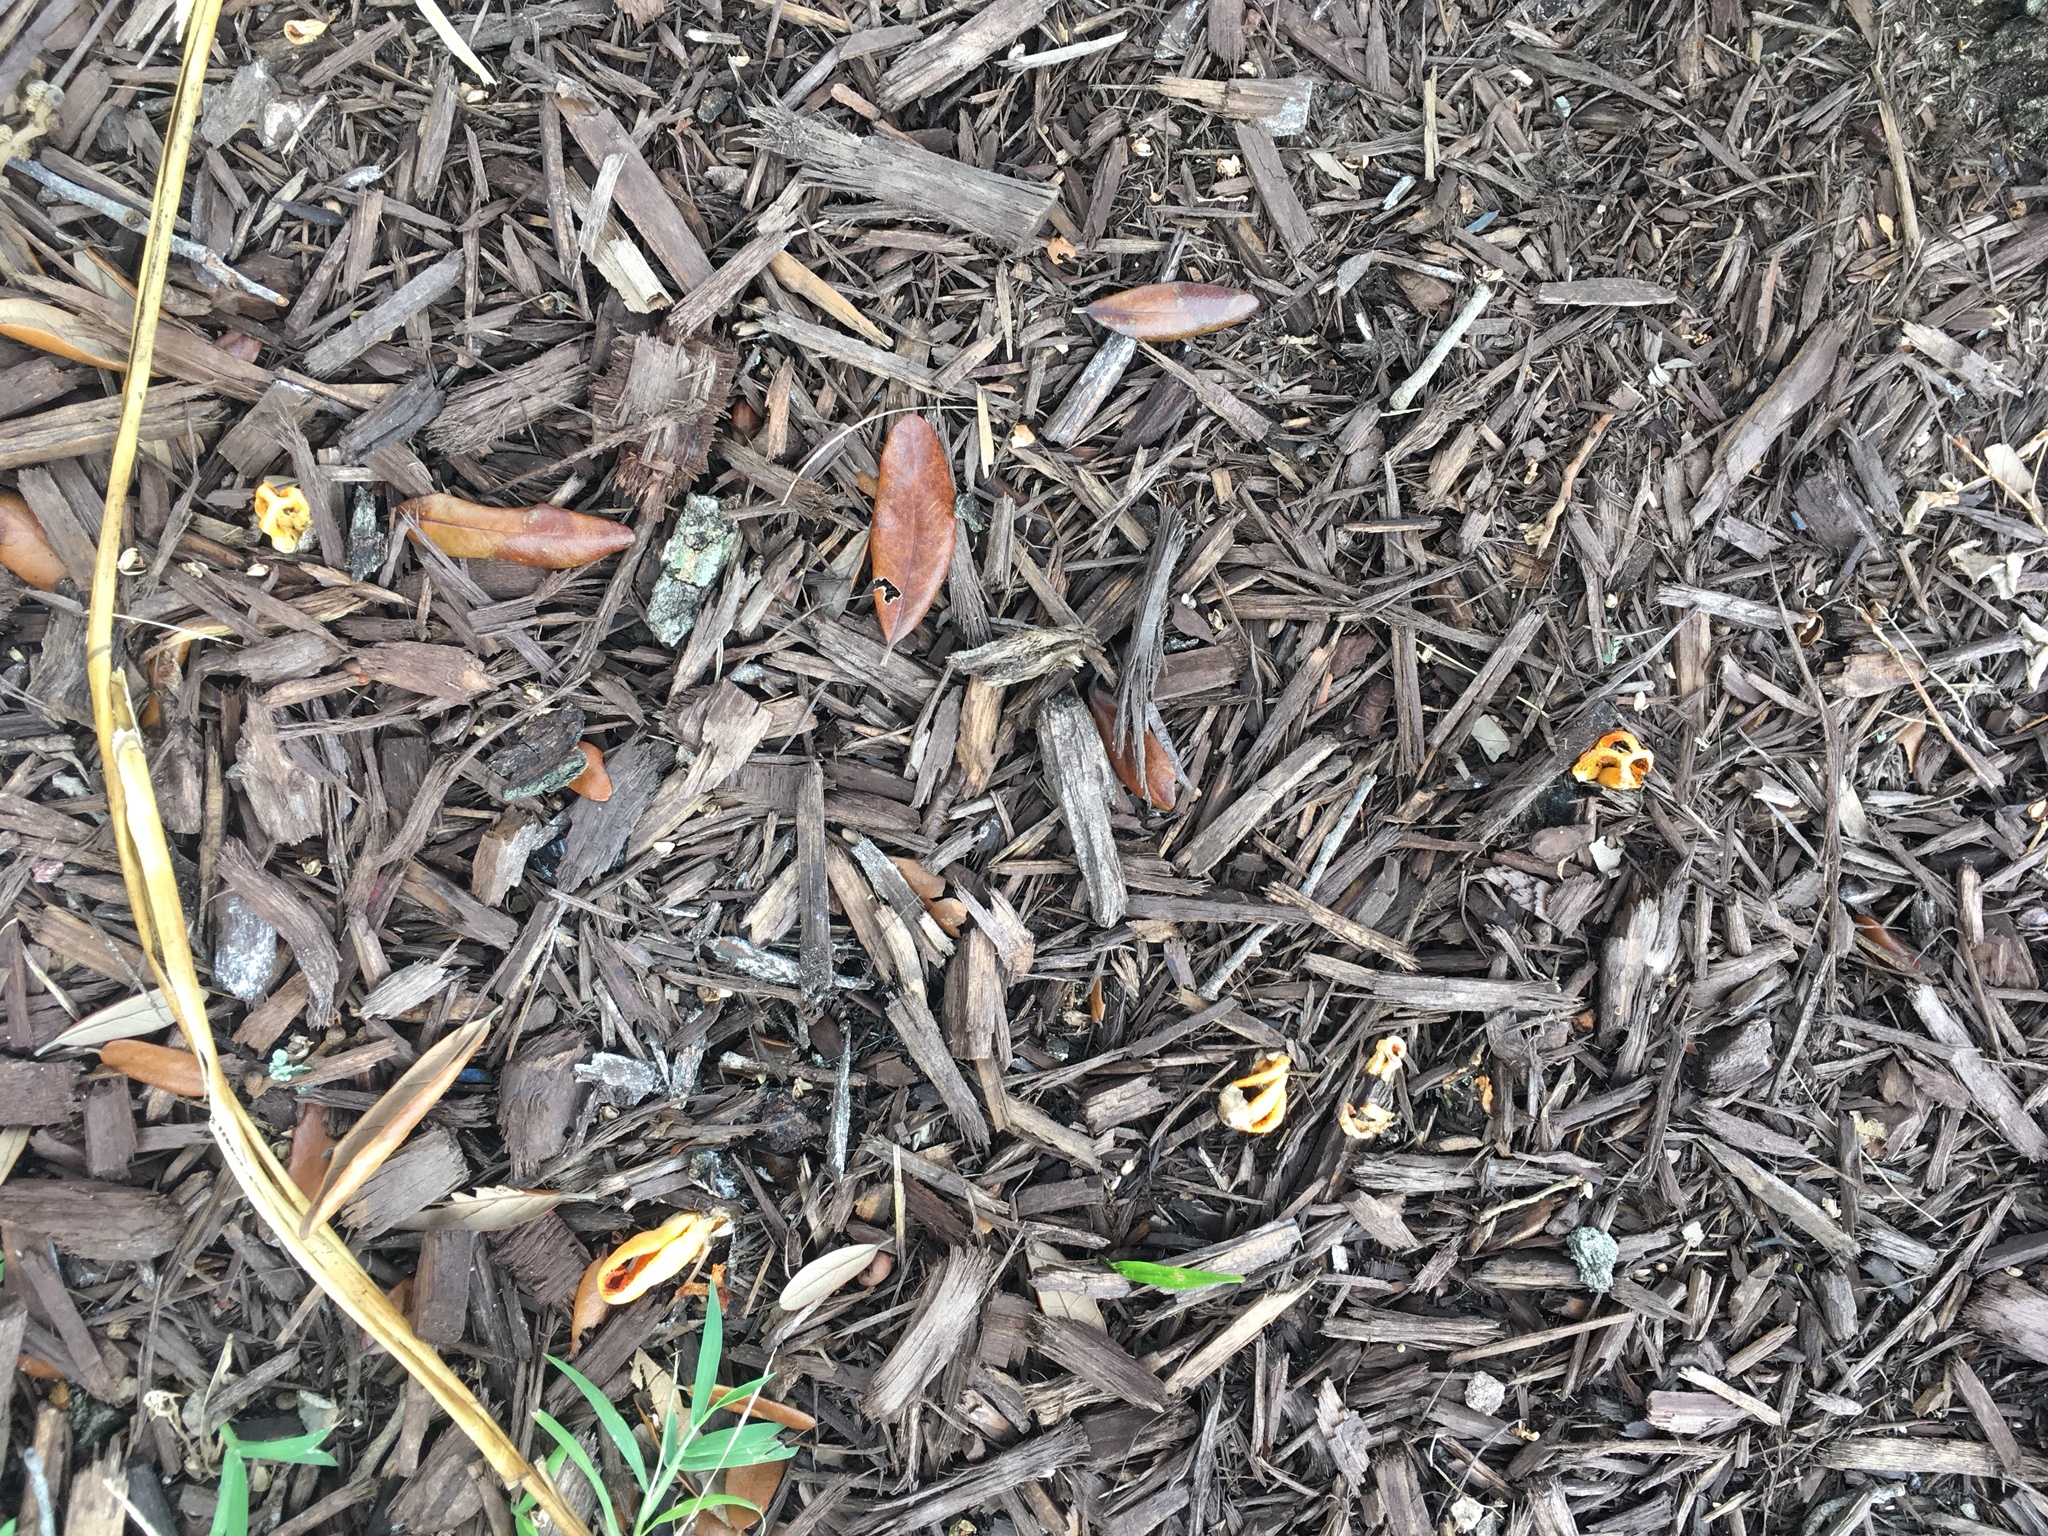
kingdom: Fungi
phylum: Basidiomycota
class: Agaricomycetes
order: Phallales
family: Phallaceae
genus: Laternea
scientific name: Laternea dringii
